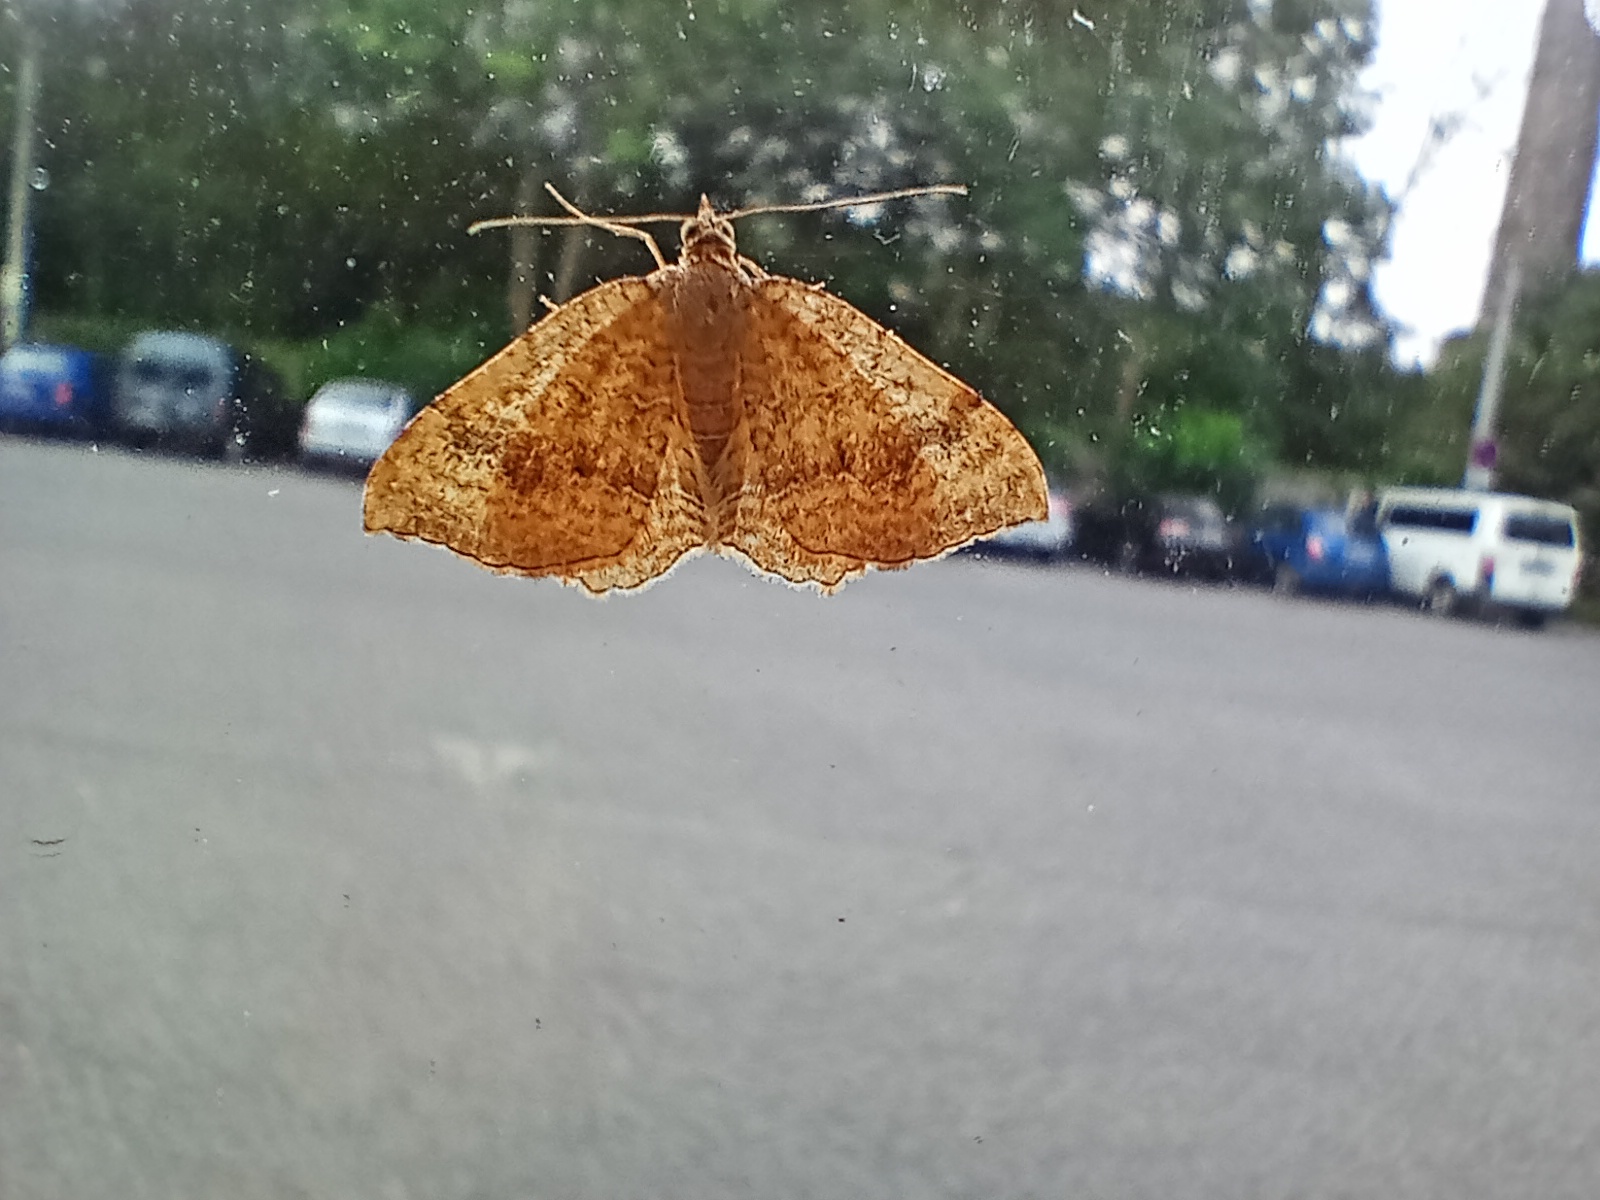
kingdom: Animalia
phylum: Arthropoda
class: Insecta
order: Lepidoptera
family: Geometridae
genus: Camptogramma
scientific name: Camptogramma bilineata
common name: Yellow shell
